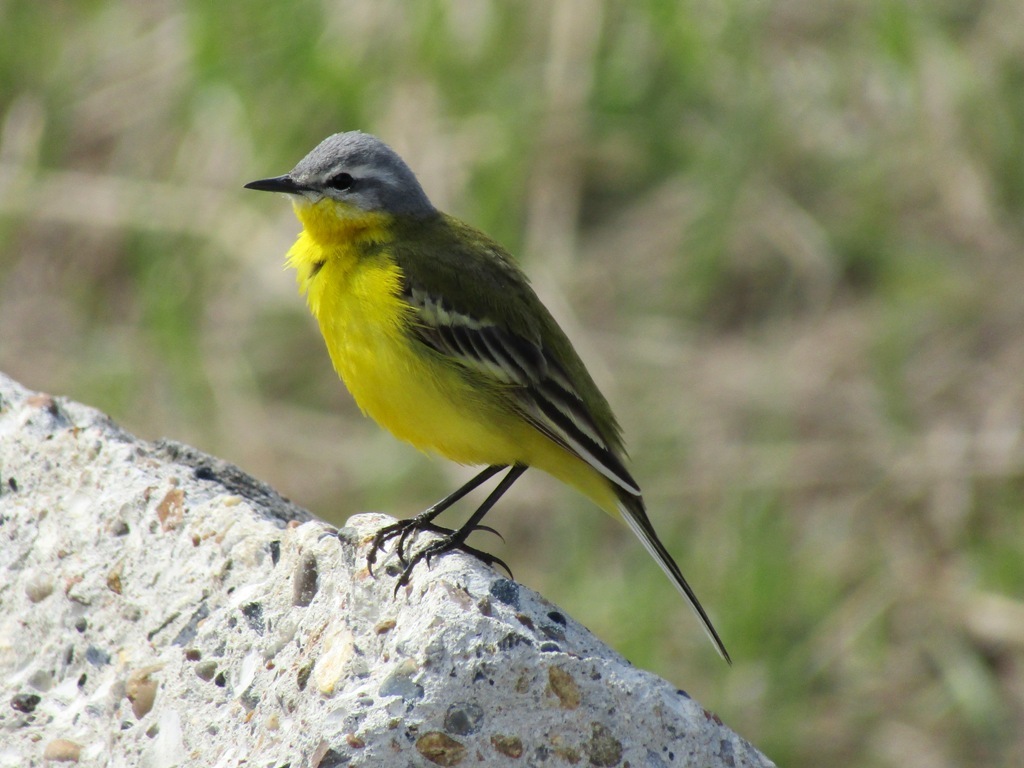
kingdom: Animalia
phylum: Chordata
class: Aves
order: Passeriformes
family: Motacillidae
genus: Motacilla
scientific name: Motacilla flava
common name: Western yellow wagtail
